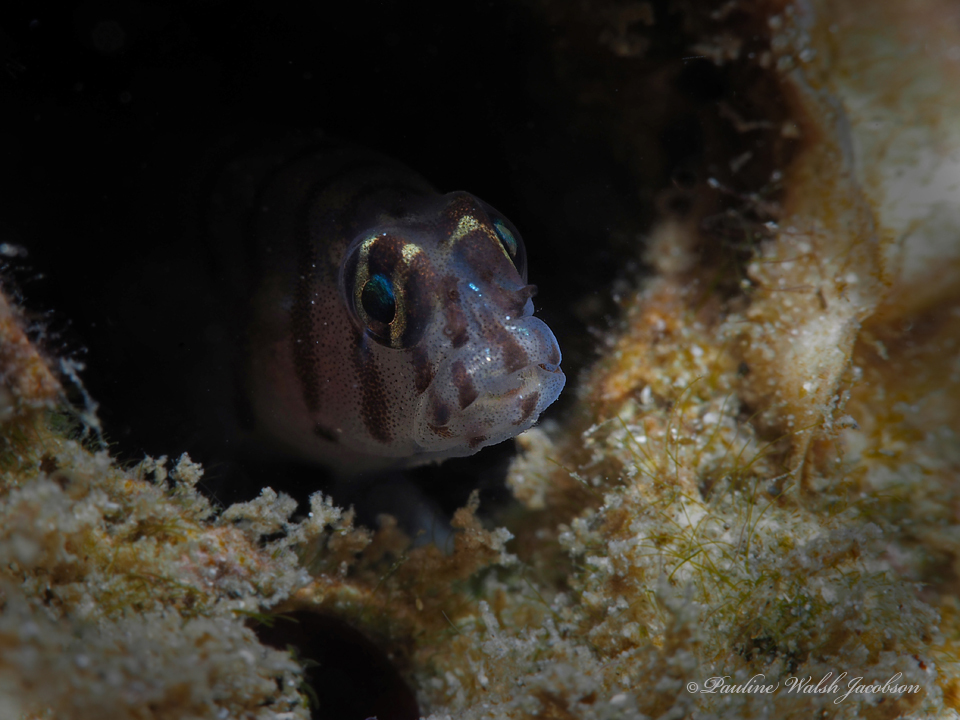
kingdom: Animalia
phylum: Chordata
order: Perciformes
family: Gobiidae
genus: Tigrigobius
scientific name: Tigrigobius macrodon
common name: Tiger goby
